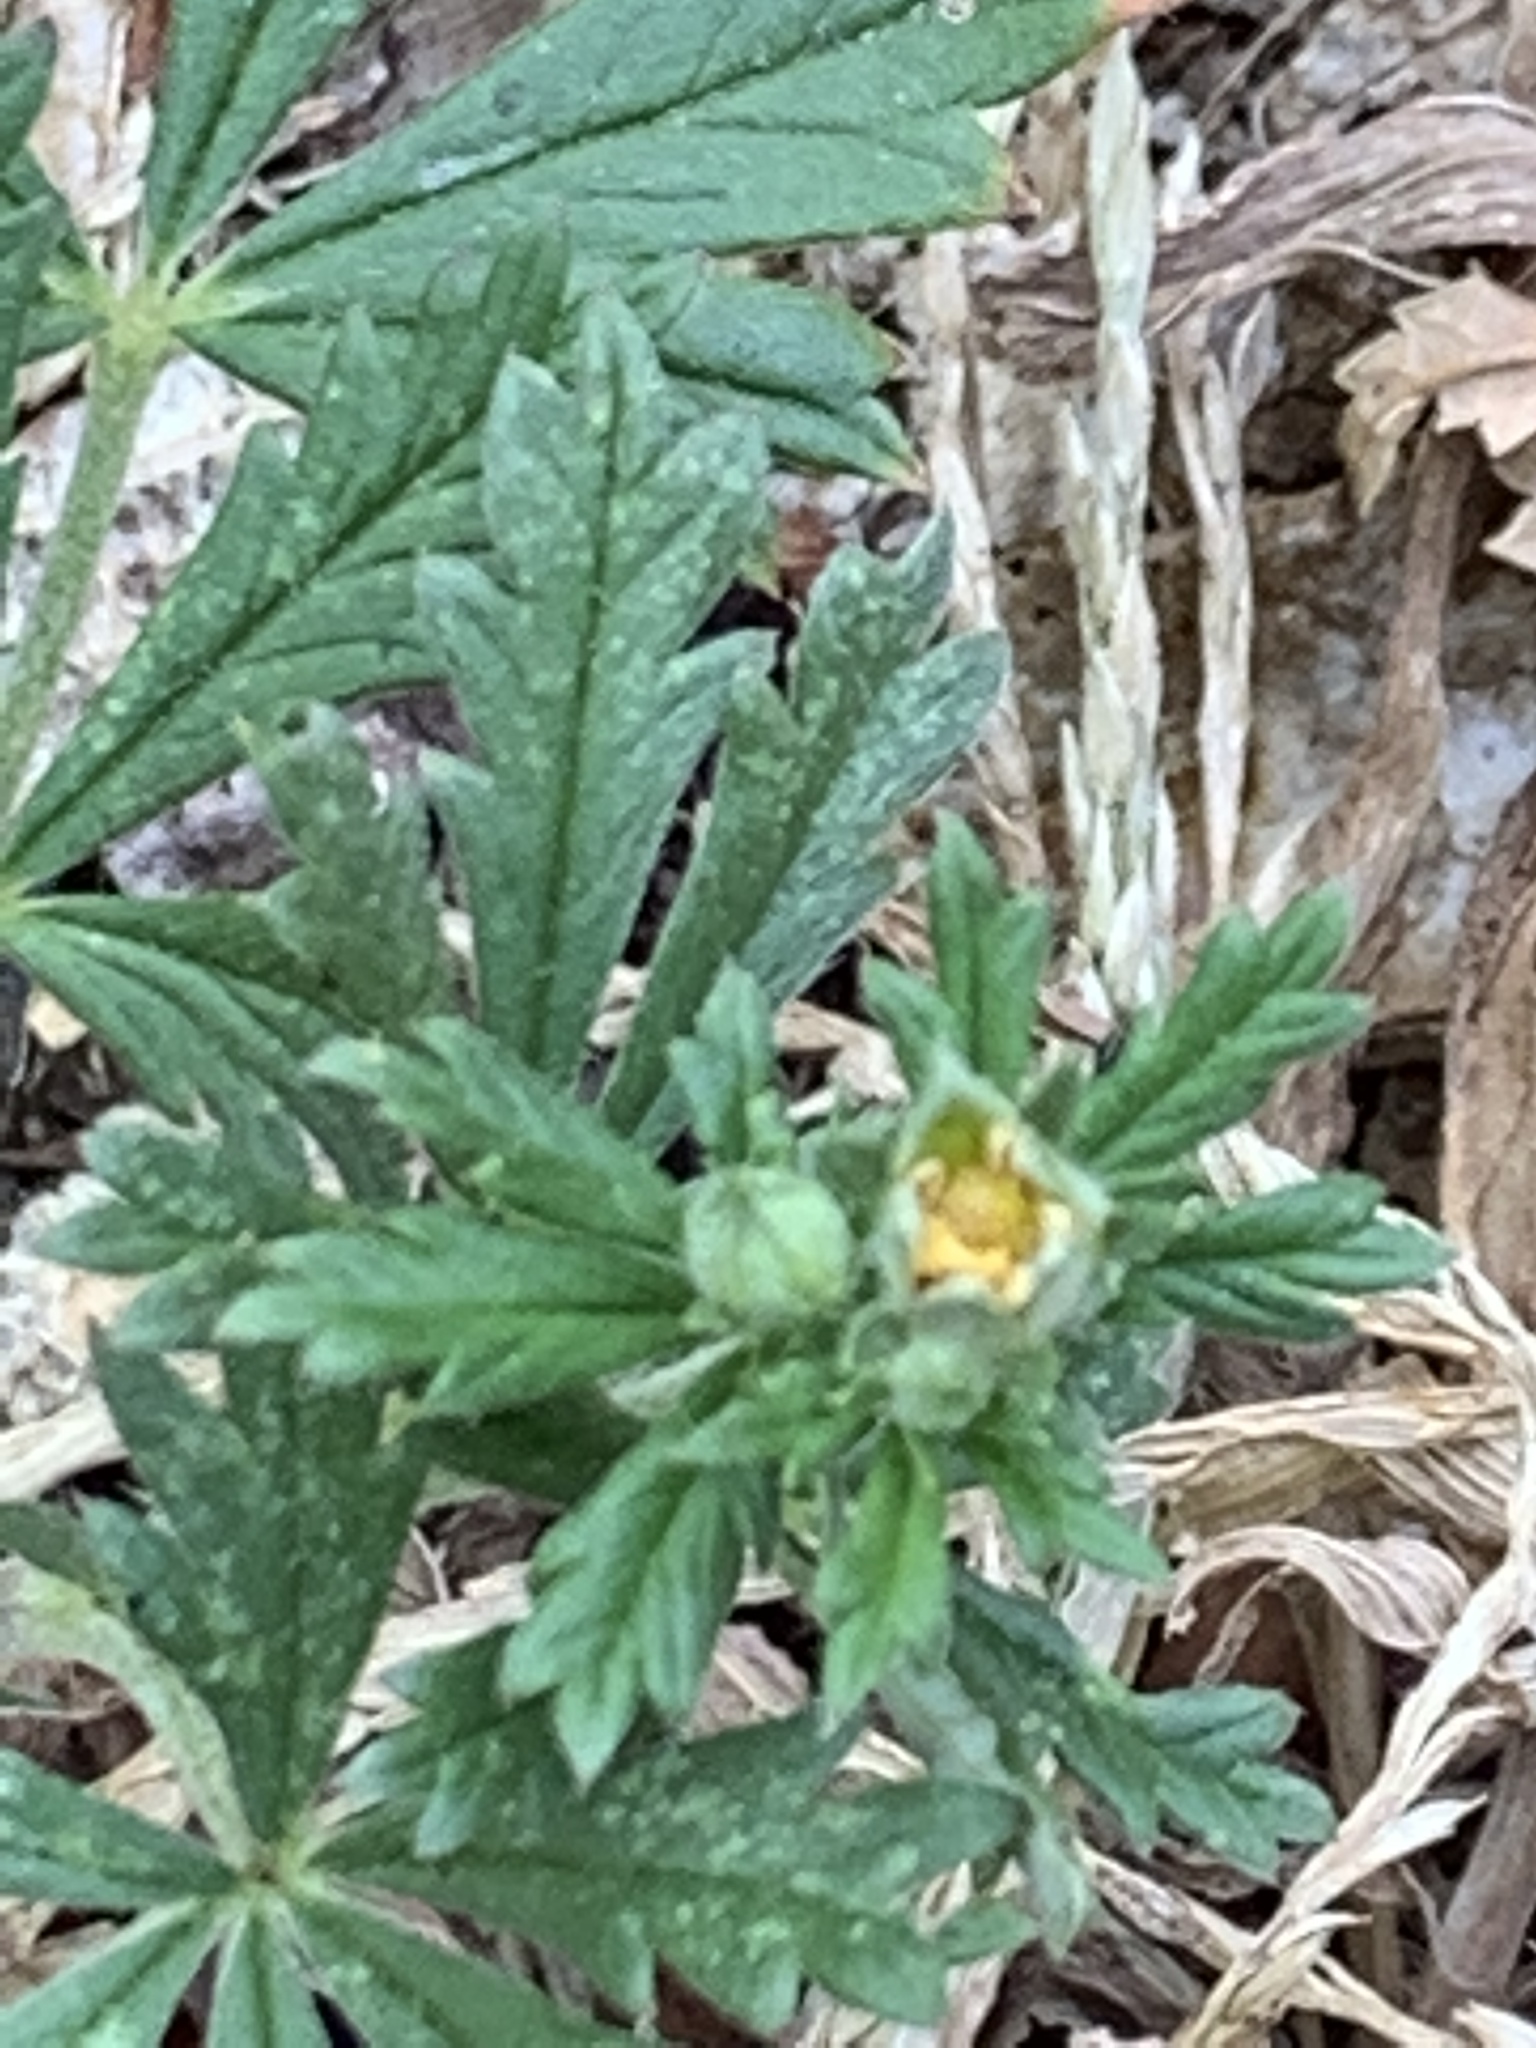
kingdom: Plantae
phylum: Tracheophyta
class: Magnoliopsida
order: Rosales
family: Rosaceae
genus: Potentilla
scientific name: Potentilla argentea
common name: Hoary cinquefoil
